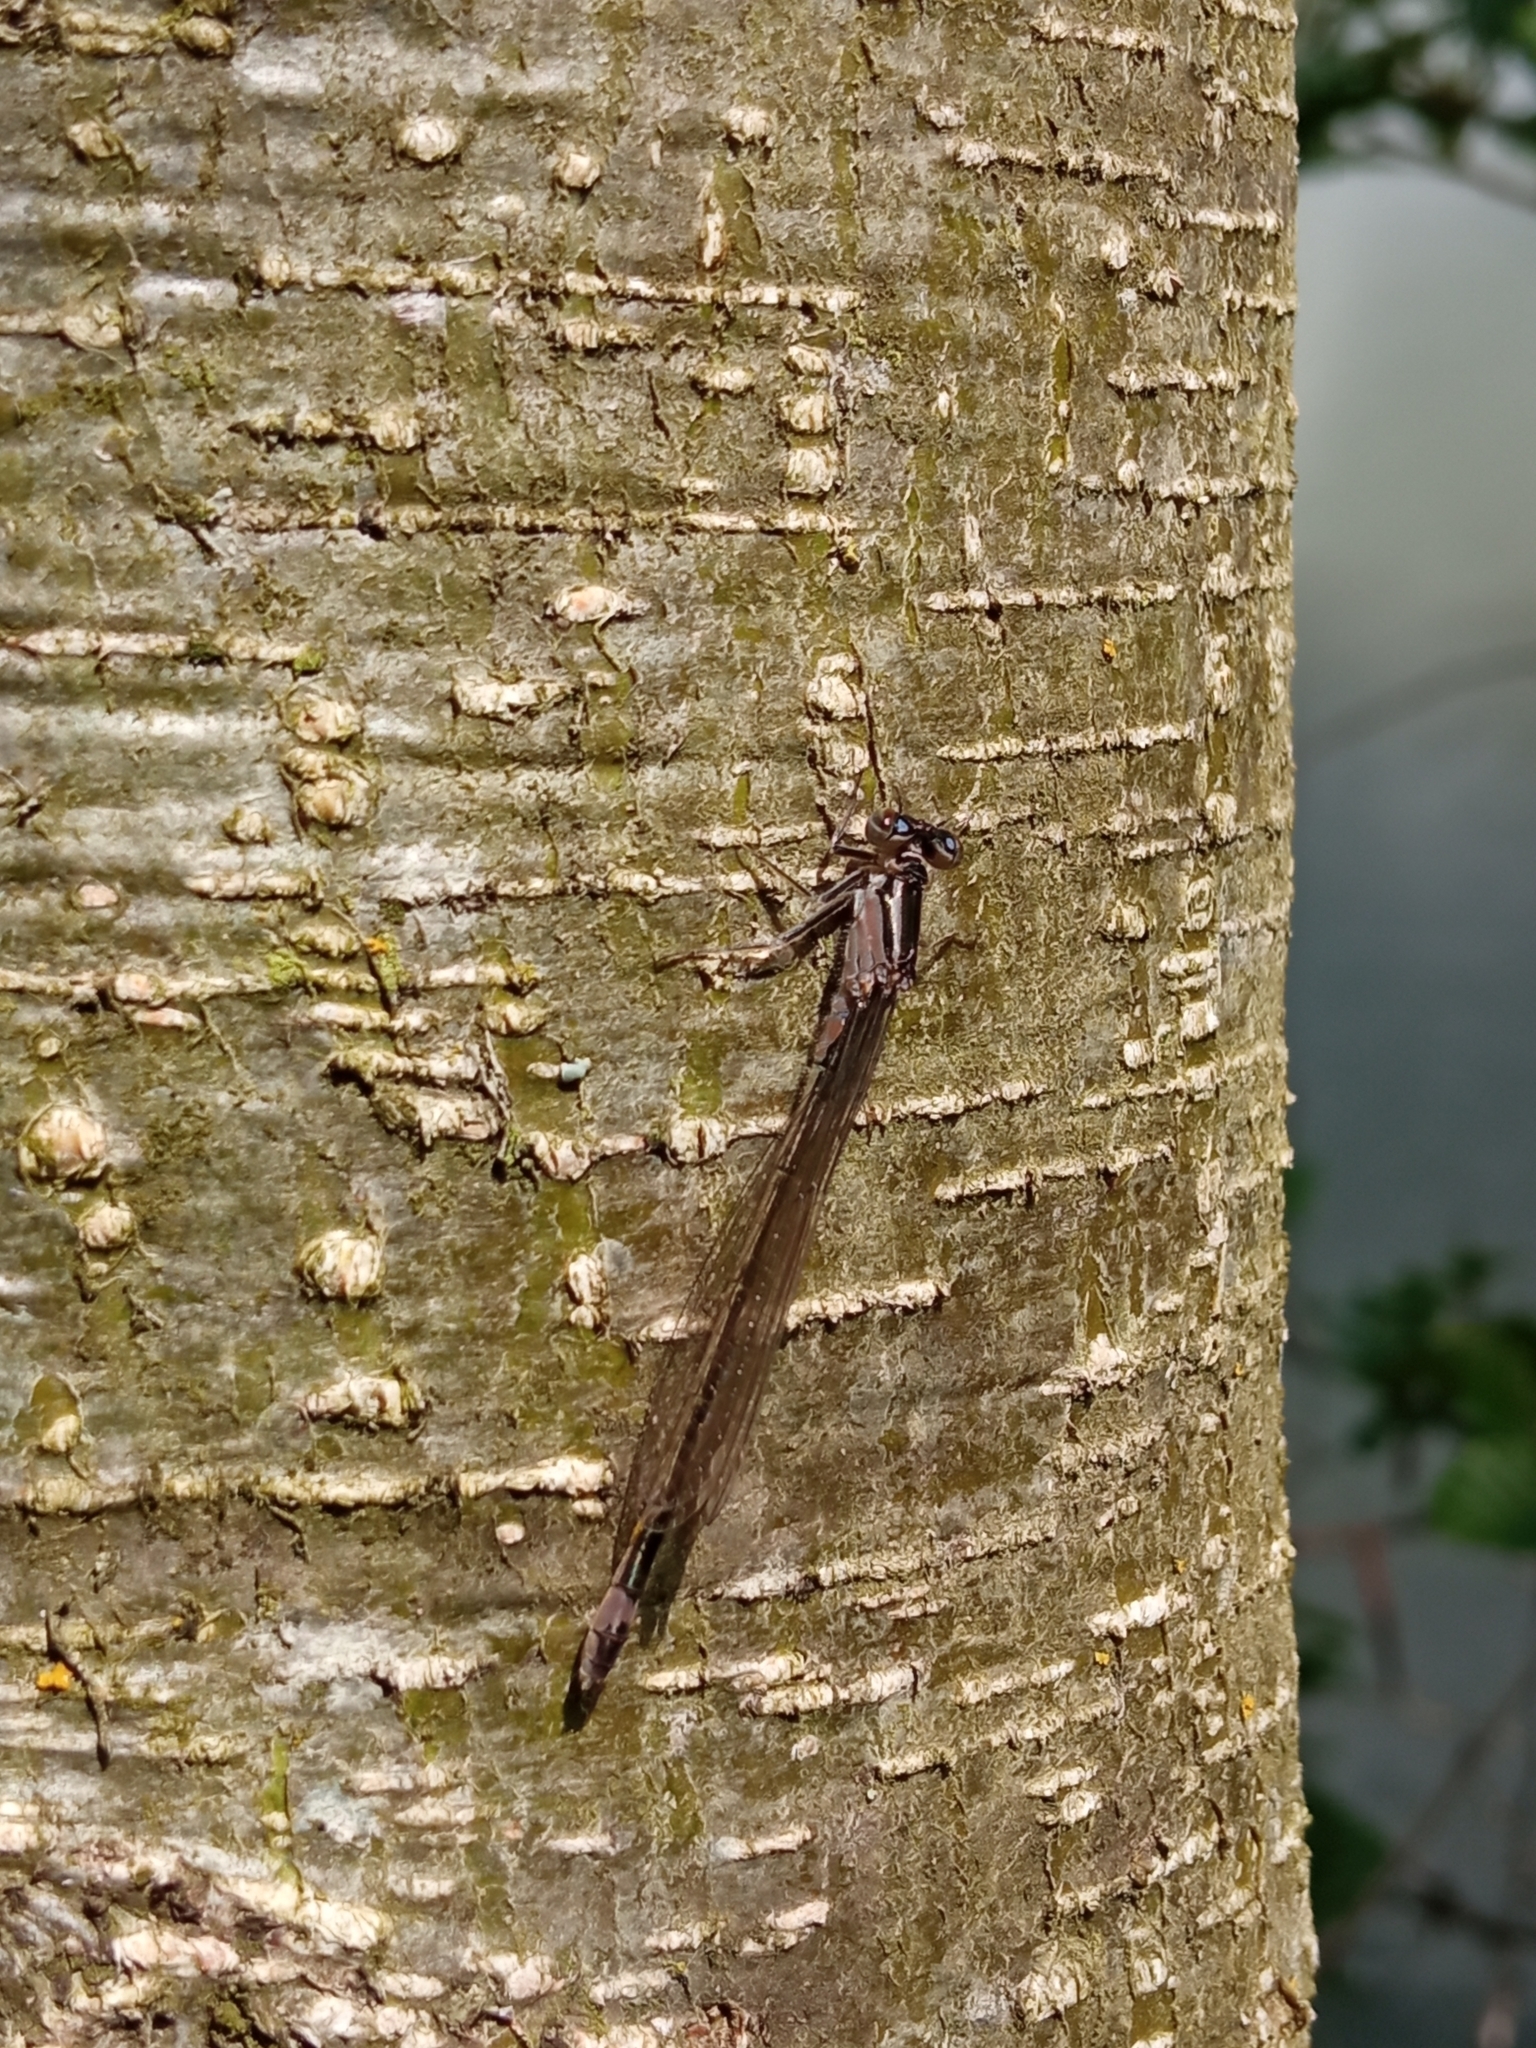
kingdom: Animalia
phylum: Arthropoda
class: Insecta
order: Odonata
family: Coenagrionidae
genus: Ischnura
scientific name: Ischnura elegans
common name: Blue-tailed damselfly
